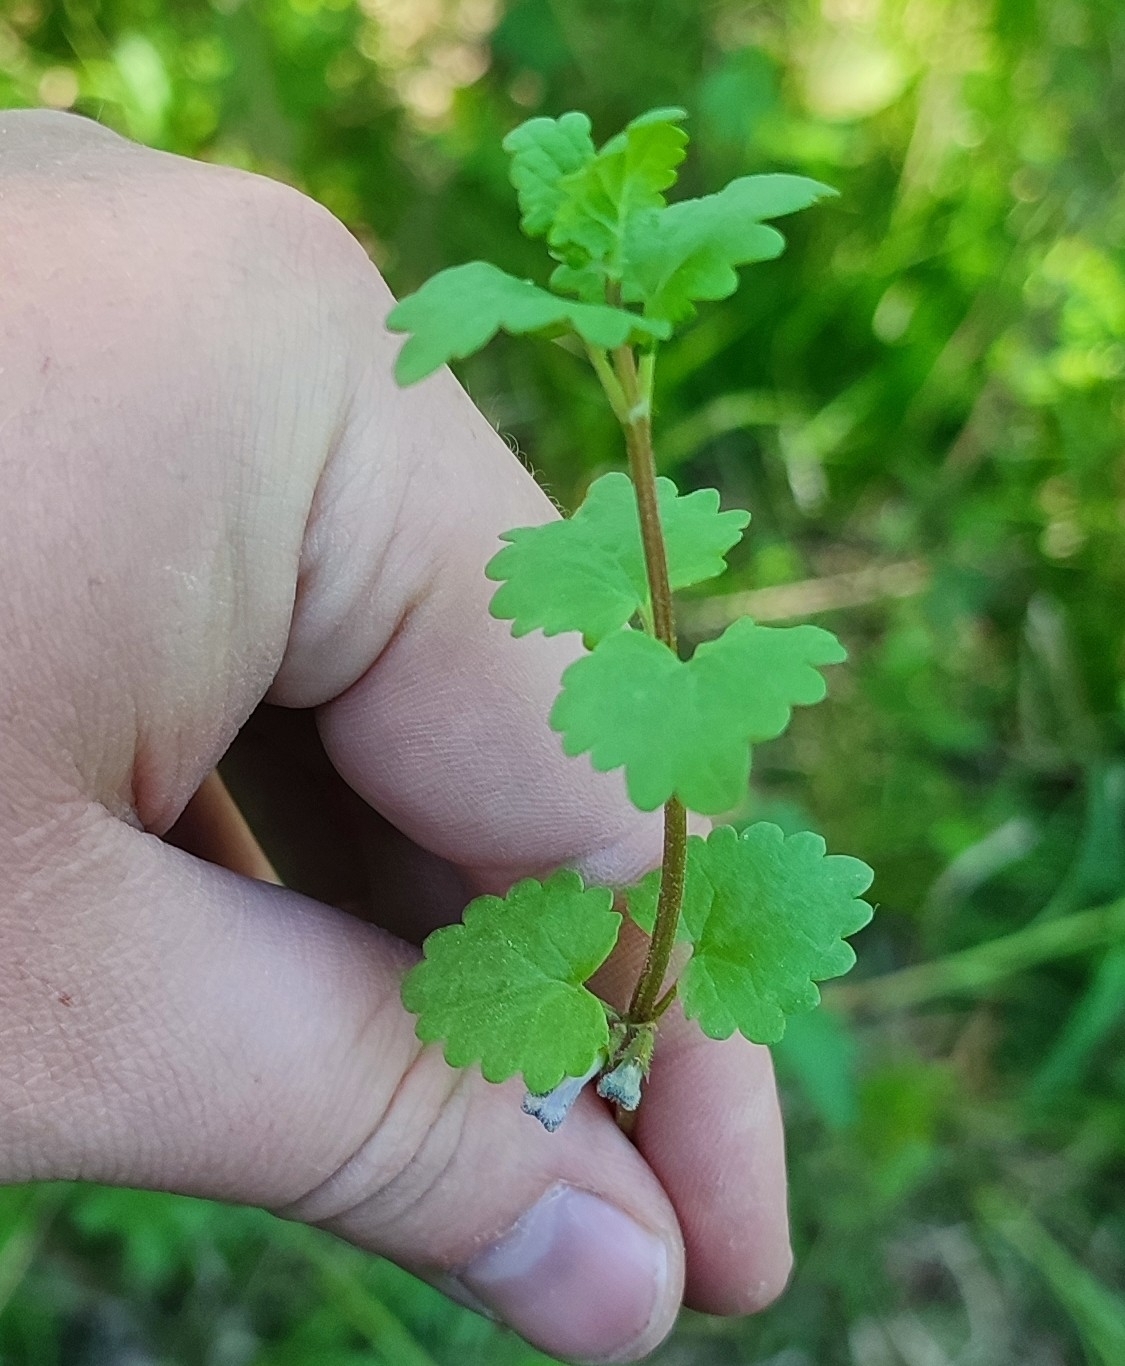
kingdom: Plantae
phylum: Tracheophyta
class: Magnoliopsida
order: Lamiales
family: Lamiaceae
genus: Glechoma
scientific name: Glechoma hederacea
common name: Ground ivy
